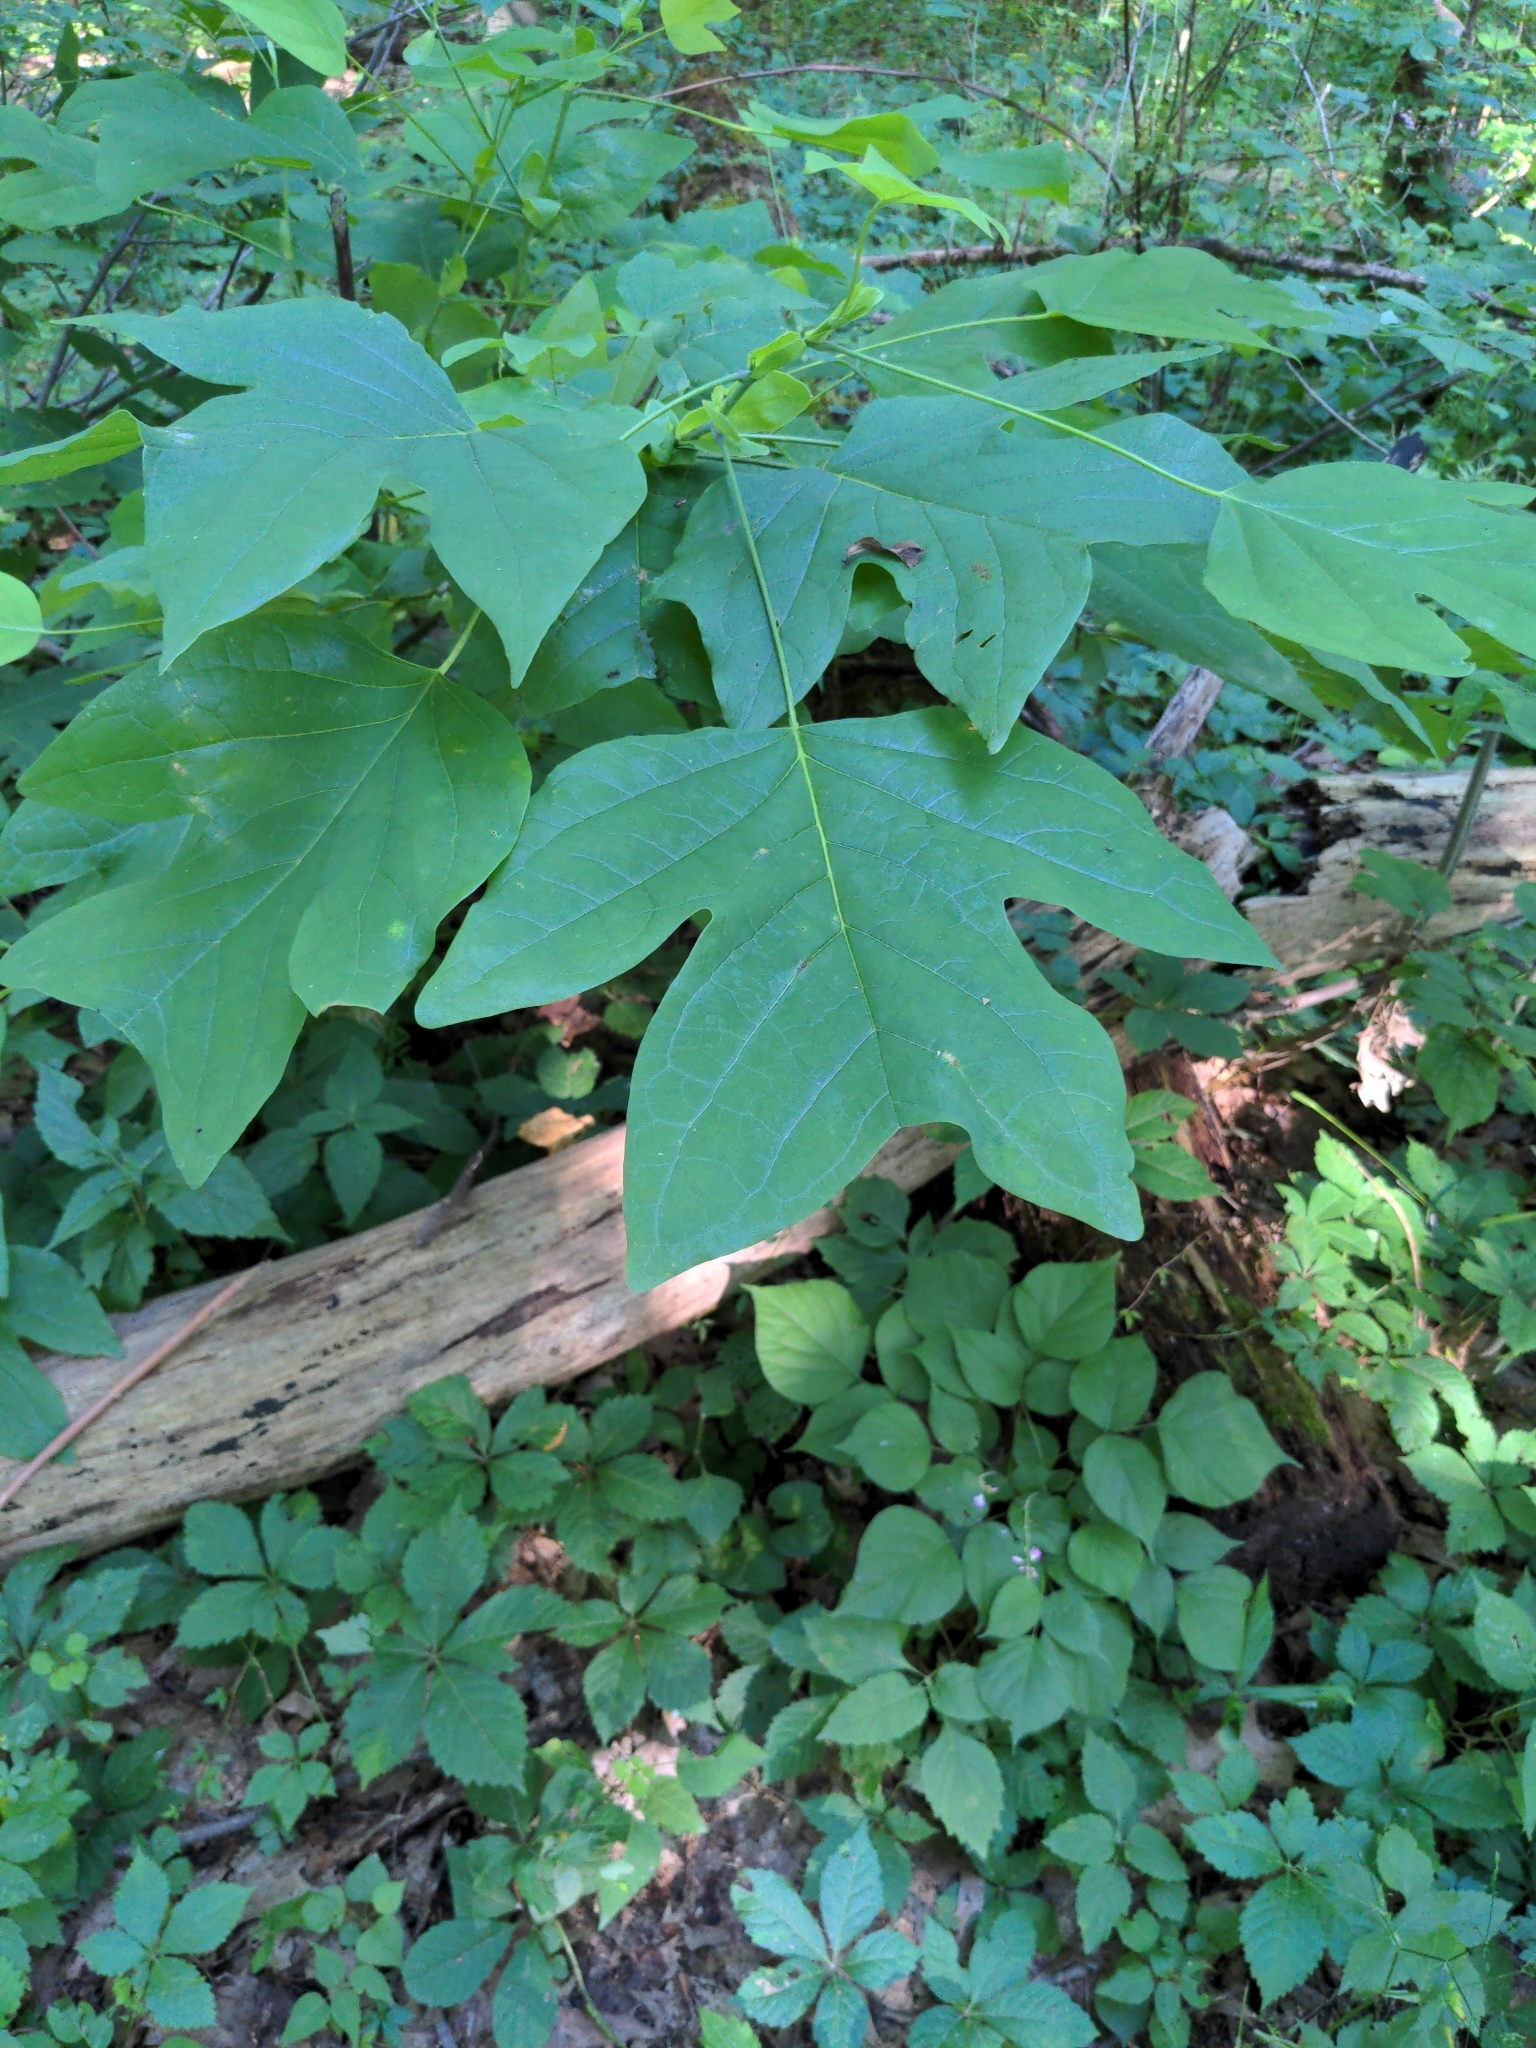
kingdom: Plantae
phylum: Tracheophyta
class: Magnoliopsida
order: Magnoliales
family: Magnoliaceae
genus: Liriodendron
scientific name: Liriodendron tulipifera
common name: Tulip tree
